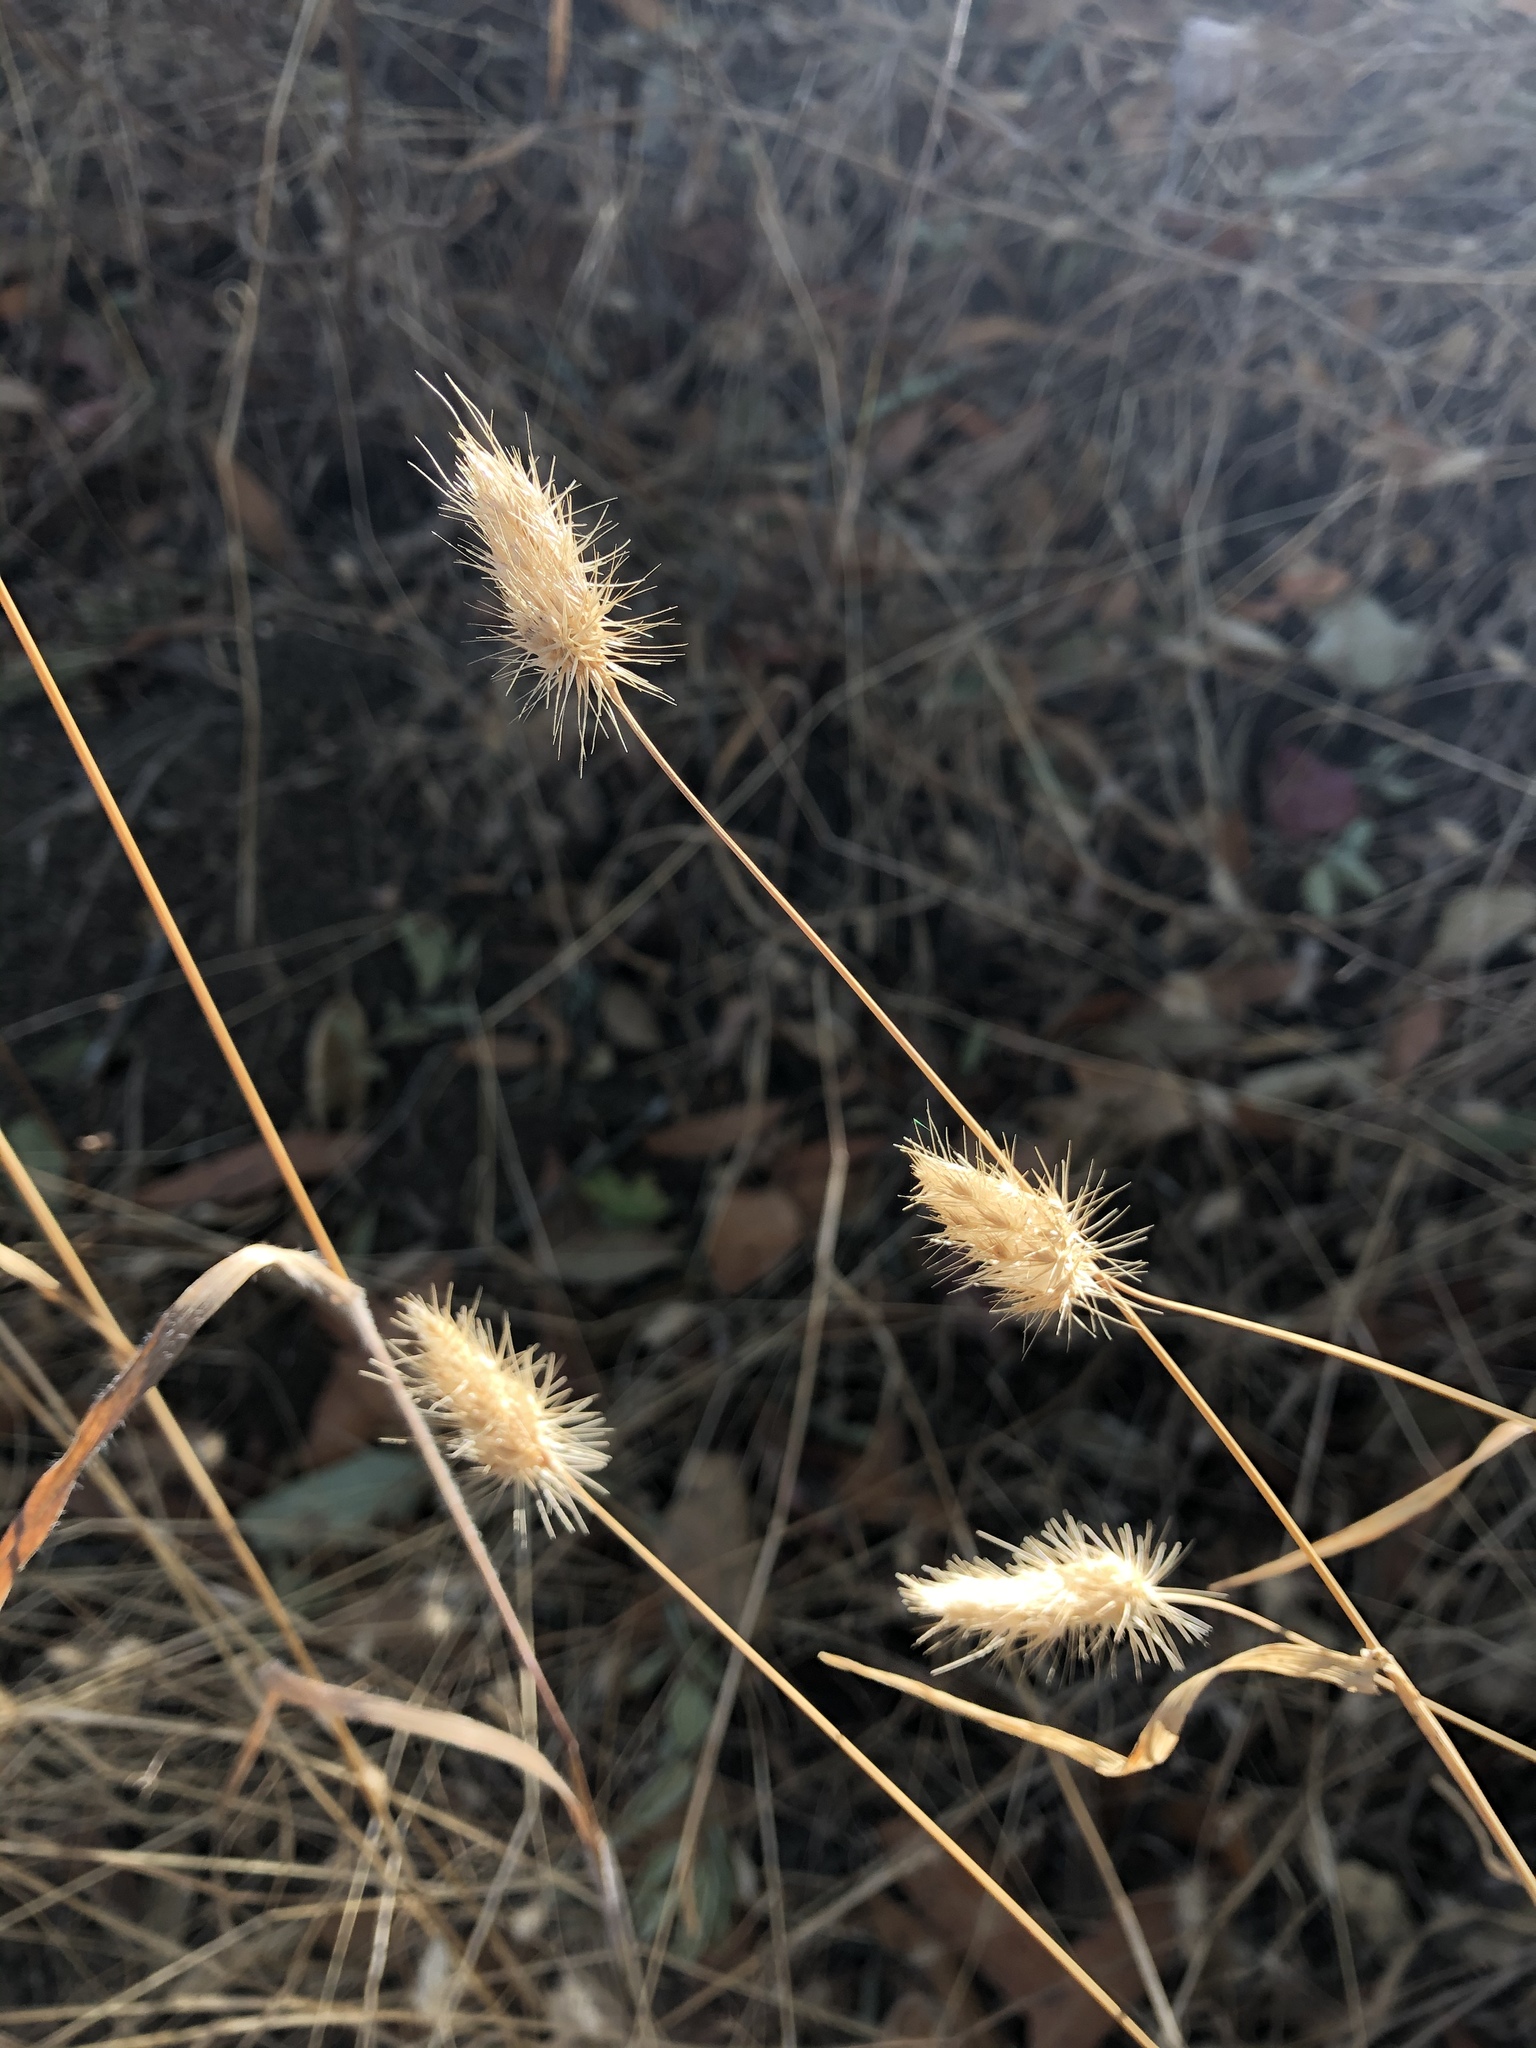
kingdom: Plantae
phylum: Tracheophyta
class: Liliopsida
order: Poales
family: Poaceae
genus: Cynosurus
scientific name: Cynosurus echinatus
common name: Rough dog's-tail
